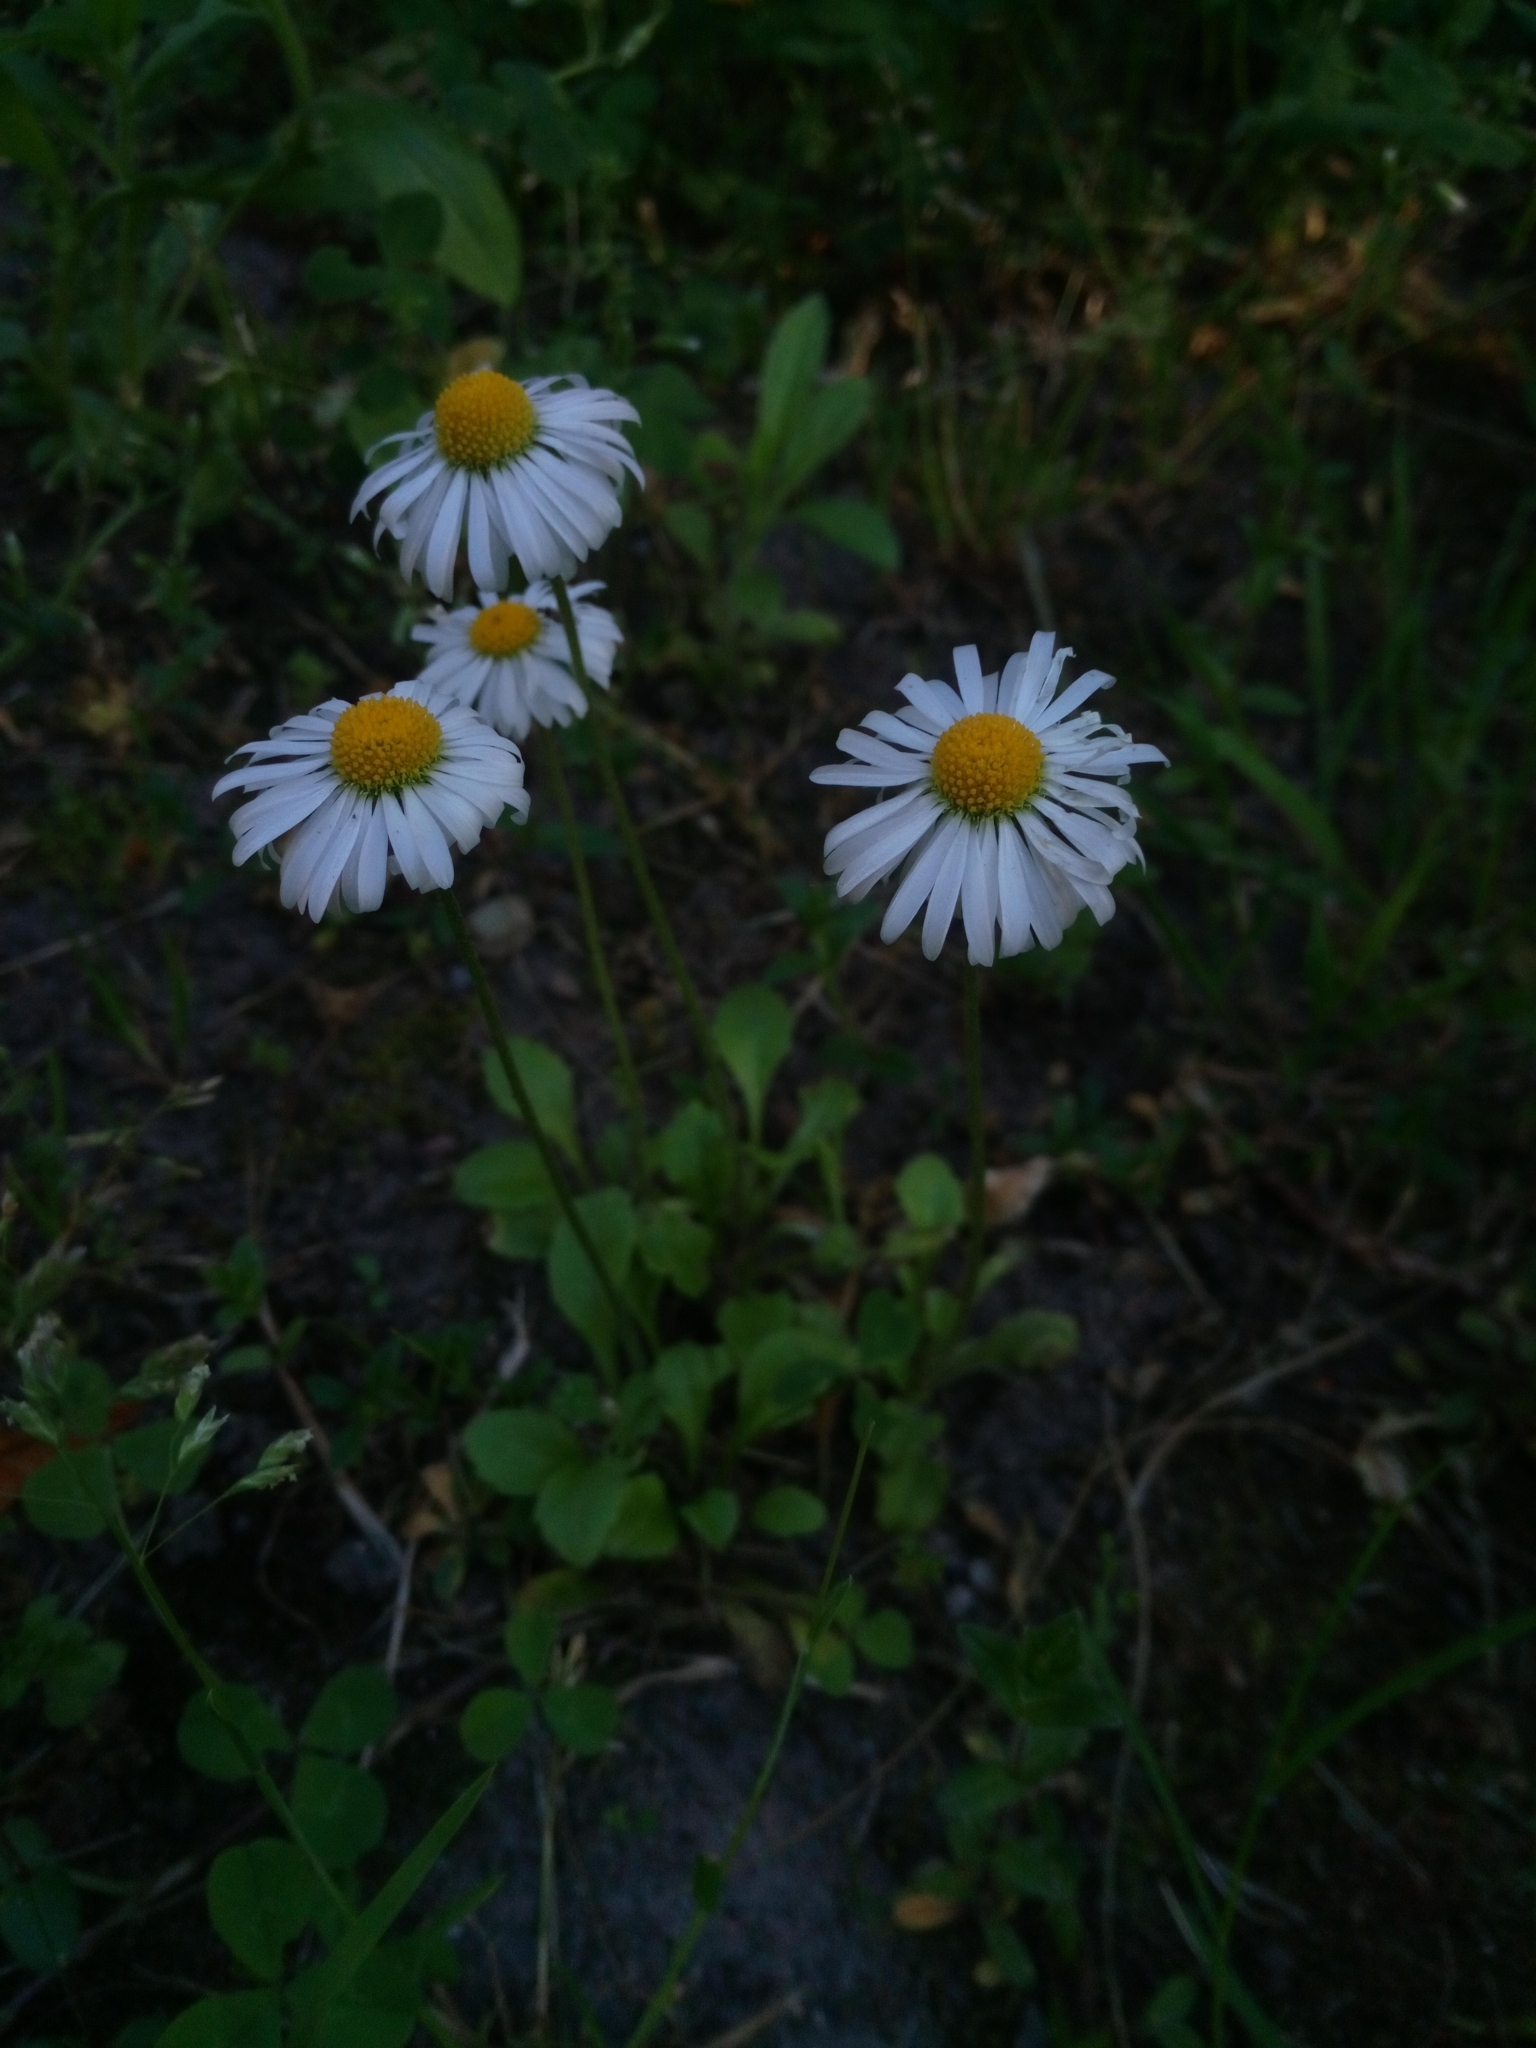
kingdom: Plantae
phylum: Tracheophyta
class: Magnoliopsida
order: Asterales
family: Asteraceae
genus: Bellis
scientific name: Bellis perennis
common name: Lawndaisy
